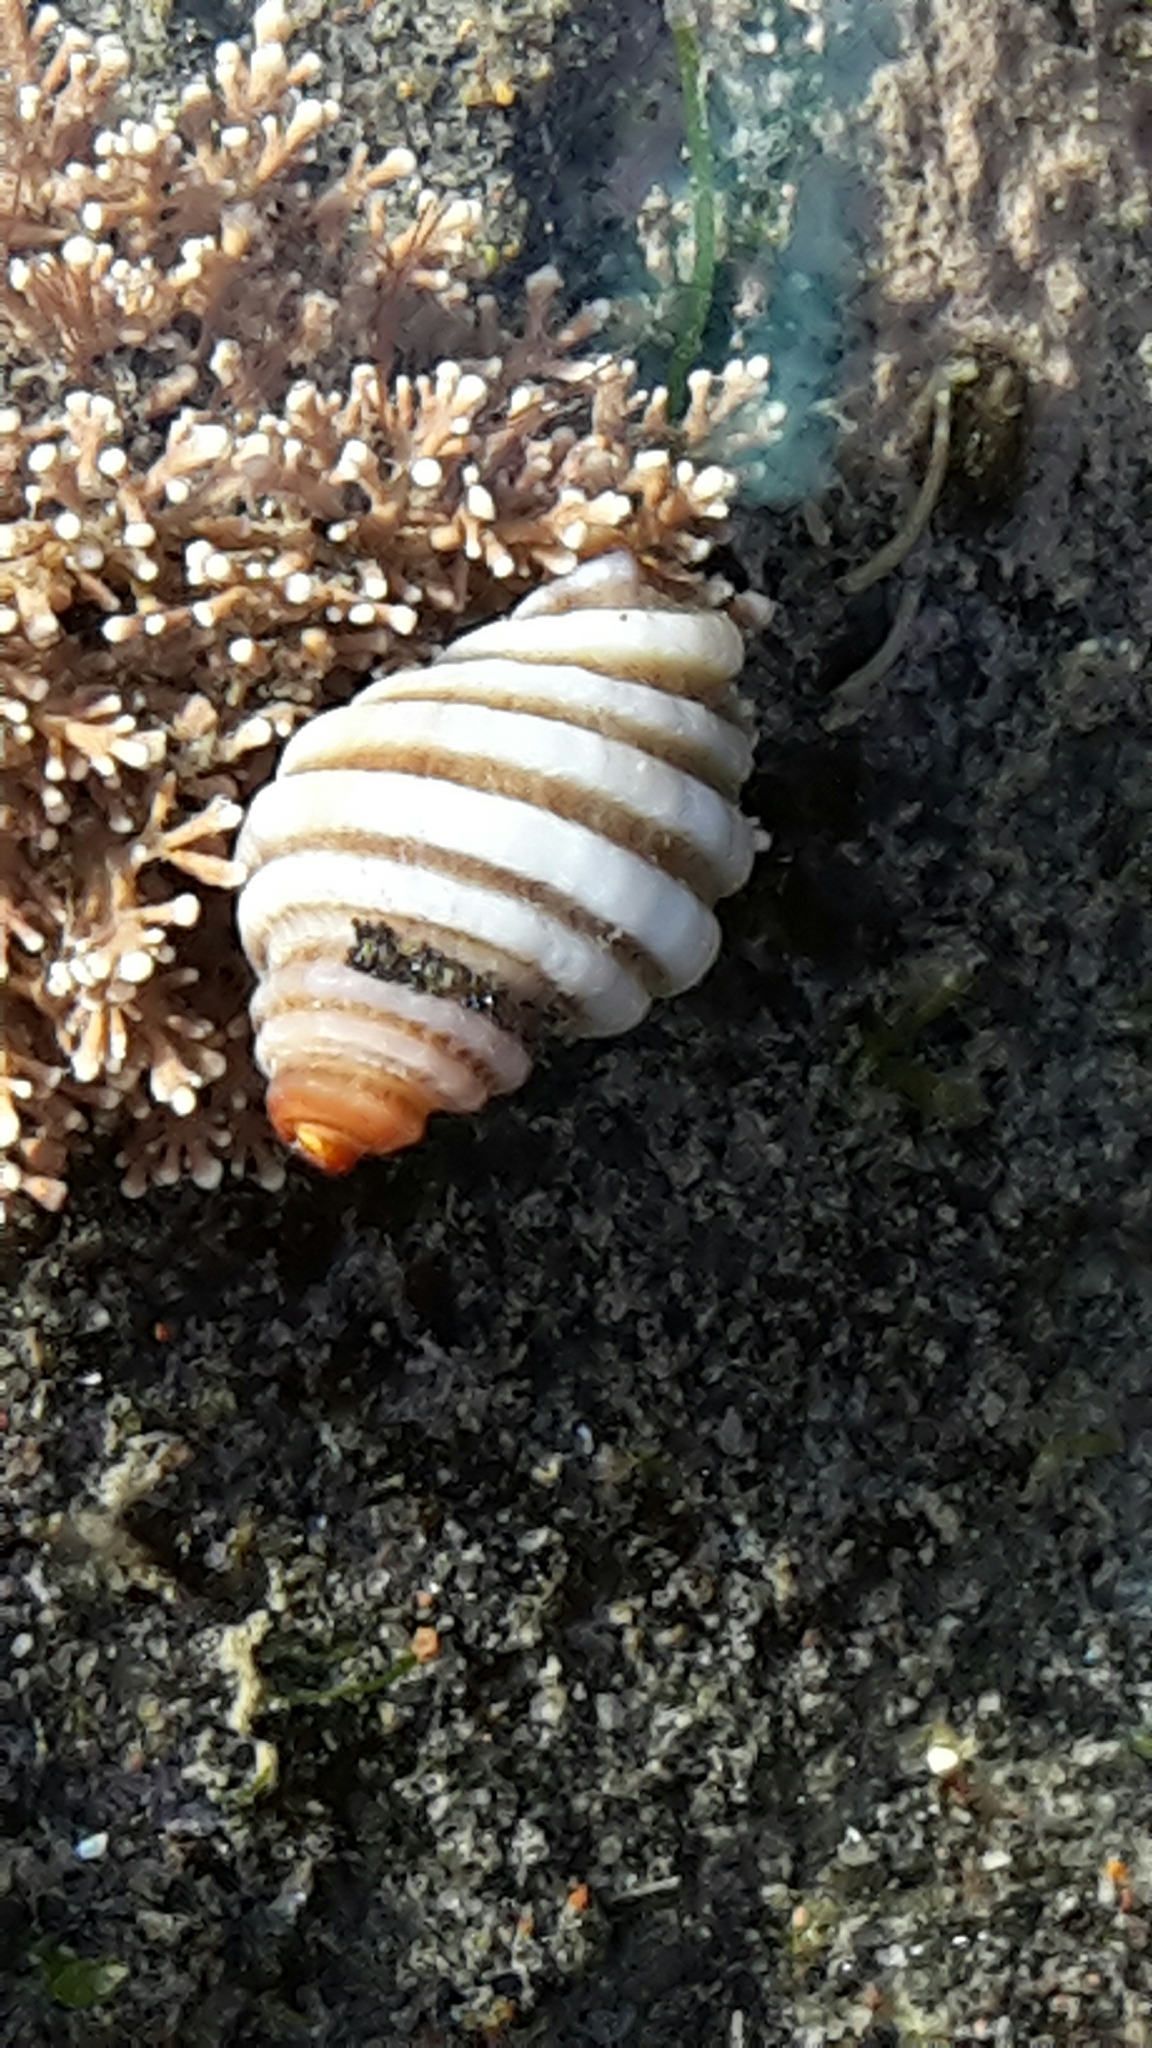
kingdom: Animalia
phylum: Mollusca
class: Gastropoda
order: Neogastropoda
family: Muricidae
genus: Paratrophon
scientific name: Paratrophon cheesemani
